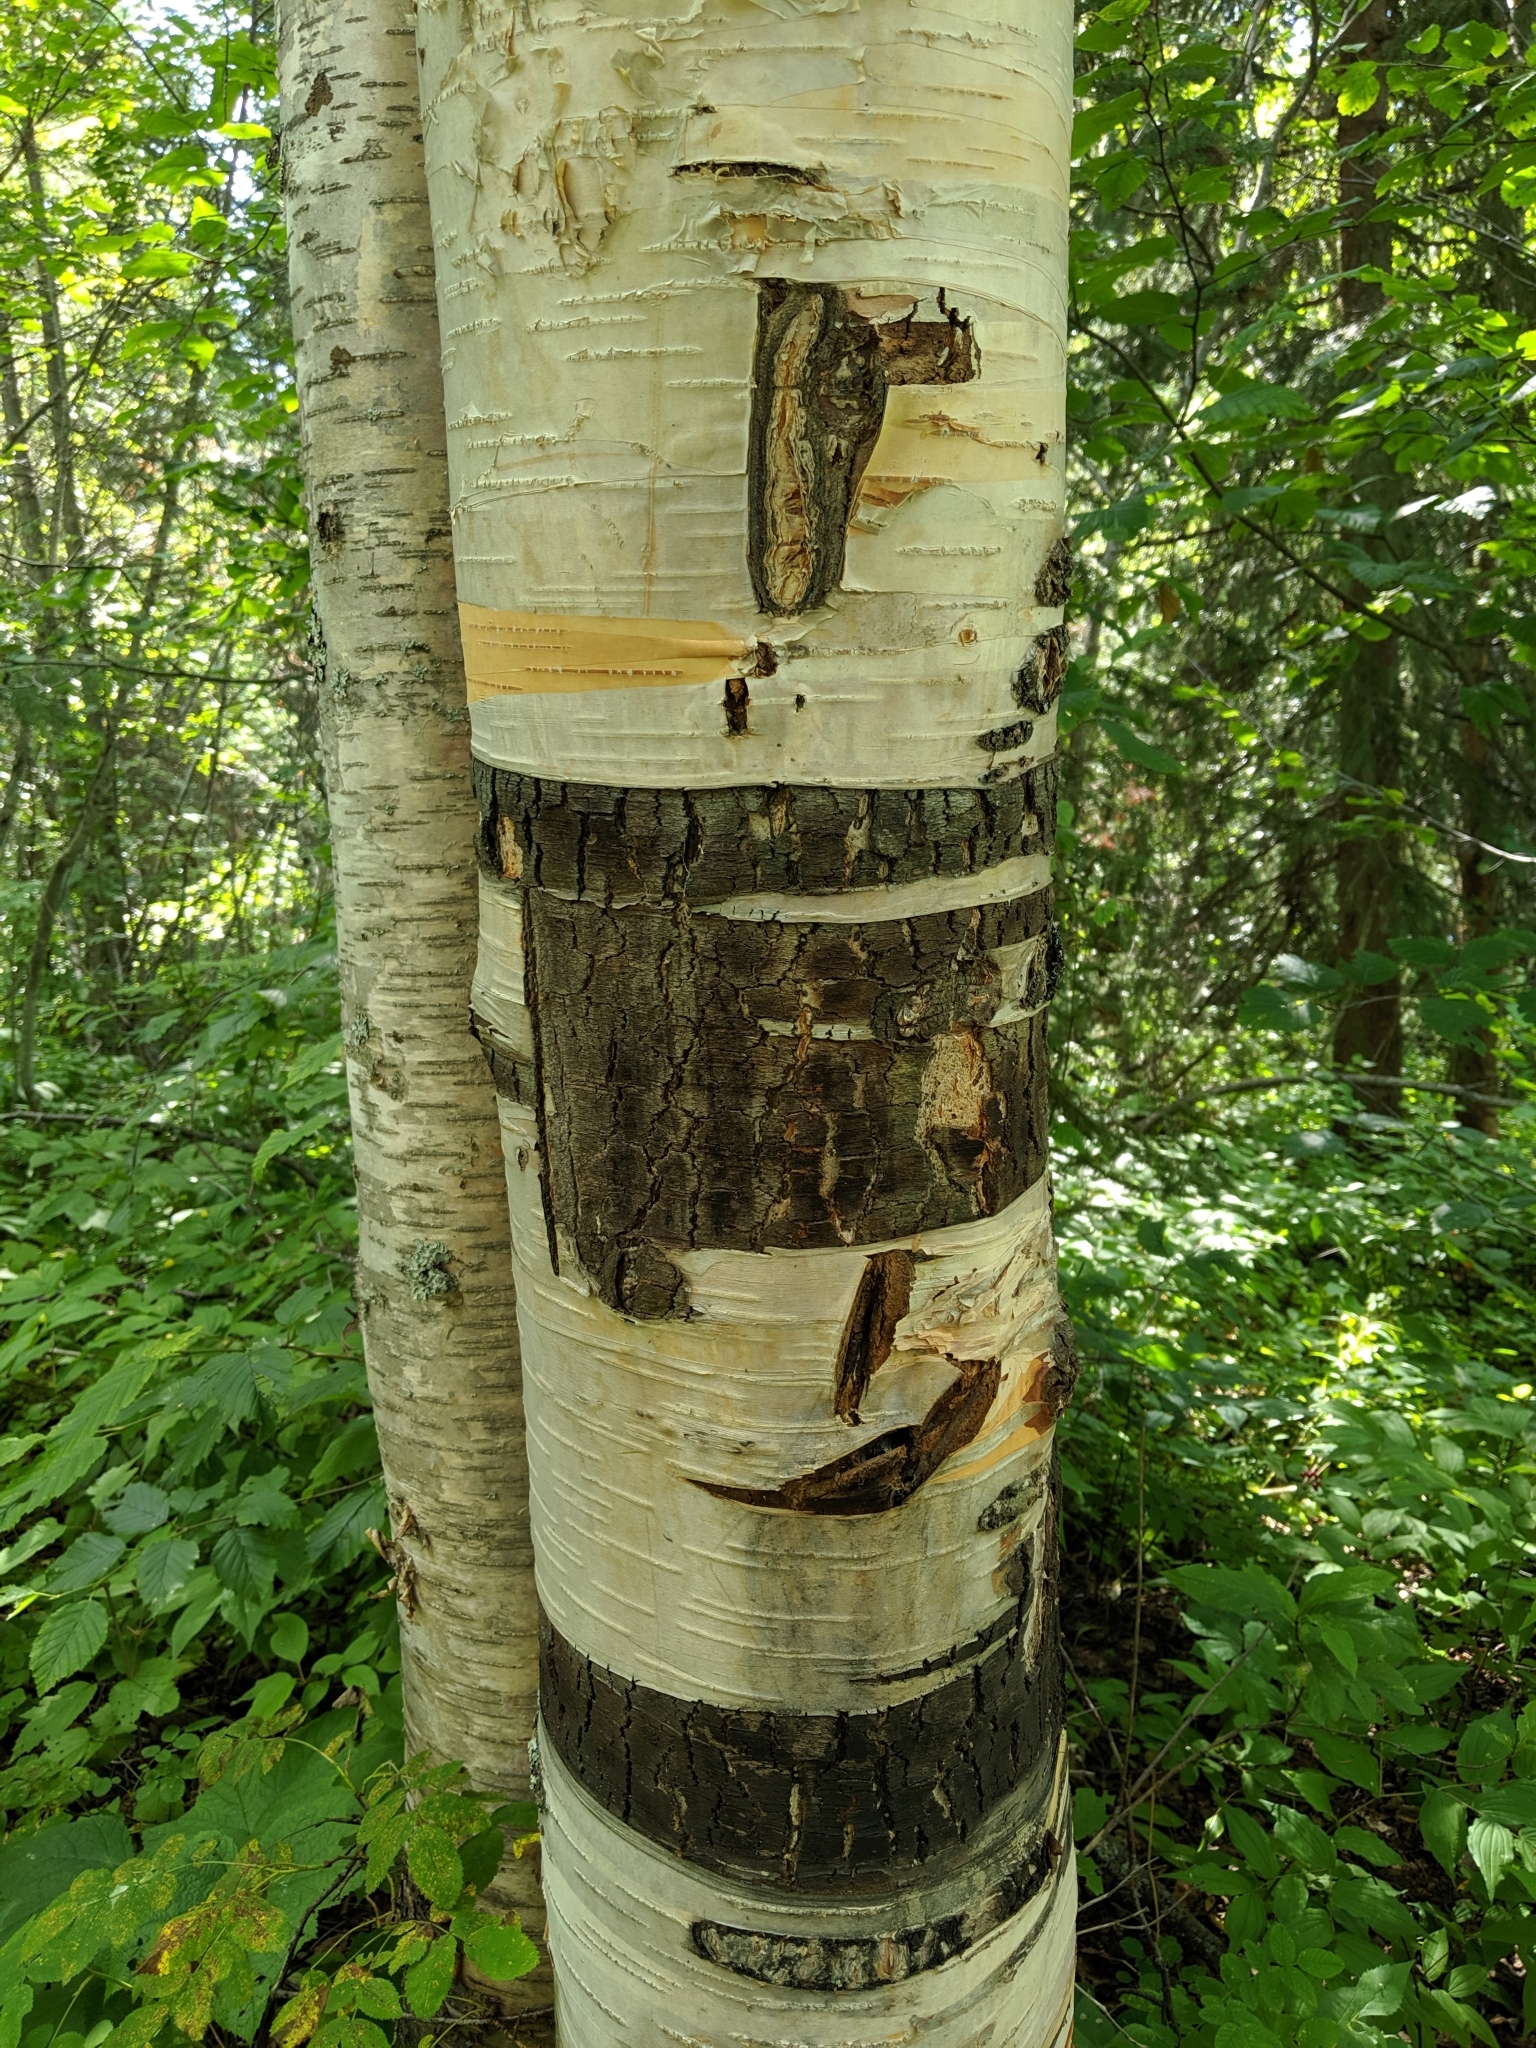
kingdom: Plantae
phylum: Tracheophyta
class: Magnoliopsida
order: Fagales
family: Betulaceae
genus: Betula
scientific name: Betula papyrifera
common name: Paper birch
